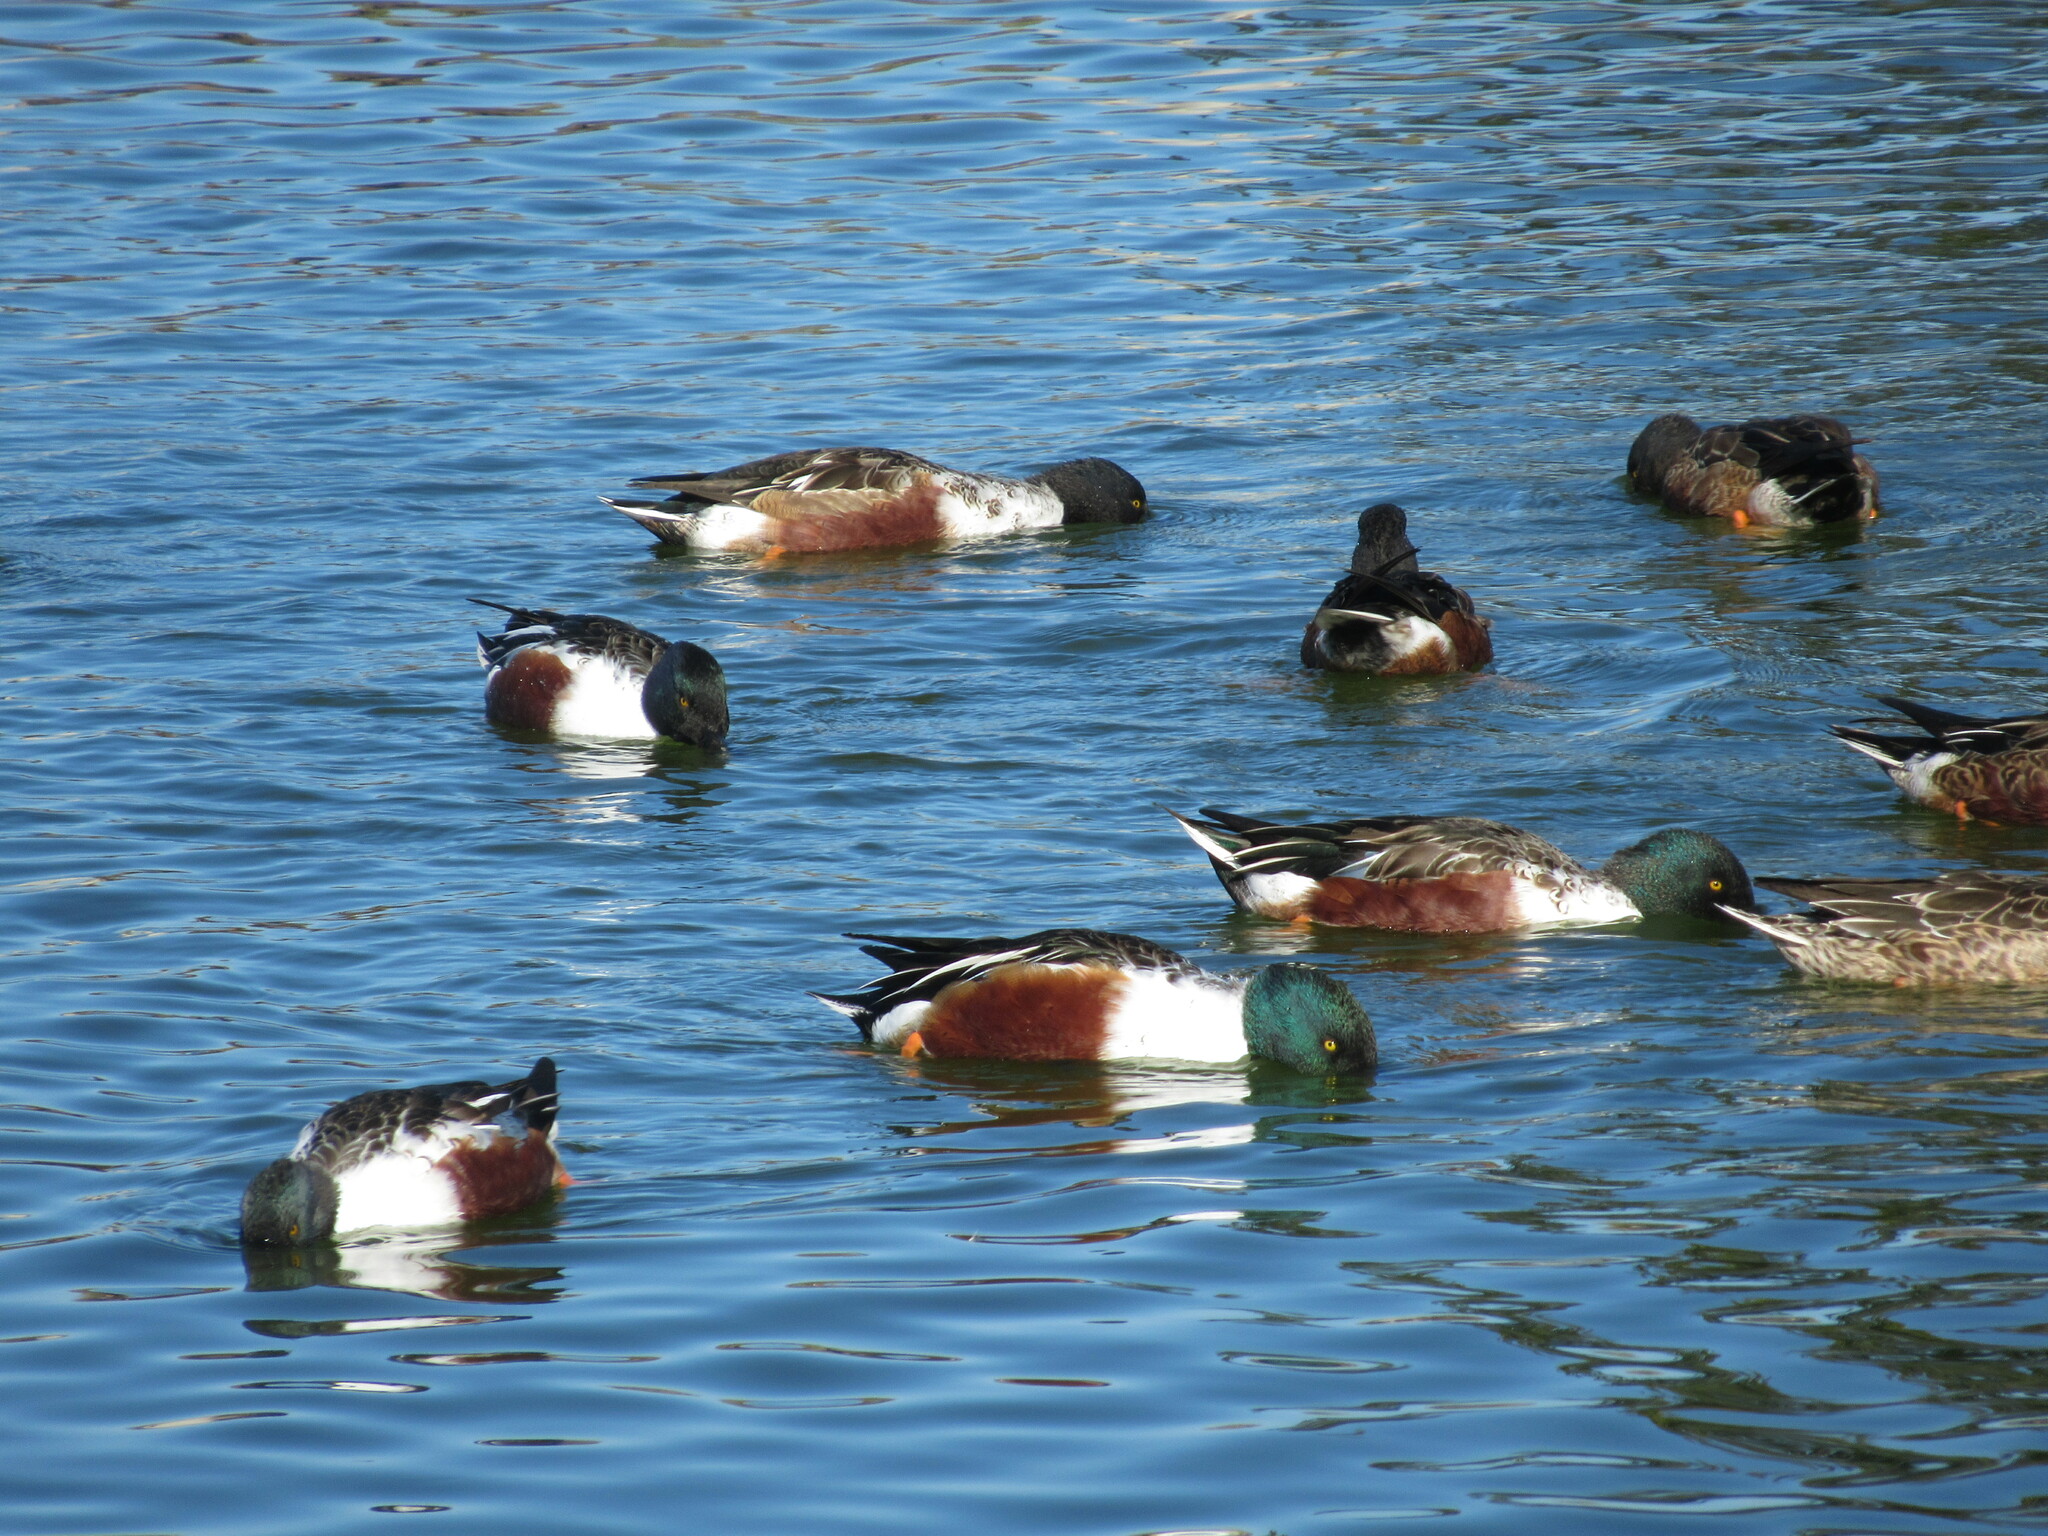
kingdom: Animalia
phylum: Chordata
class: Aves
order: Anseriformes
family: Anatidae
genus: Spatula
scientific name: Spatula clypeata
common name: Northern shoveler
